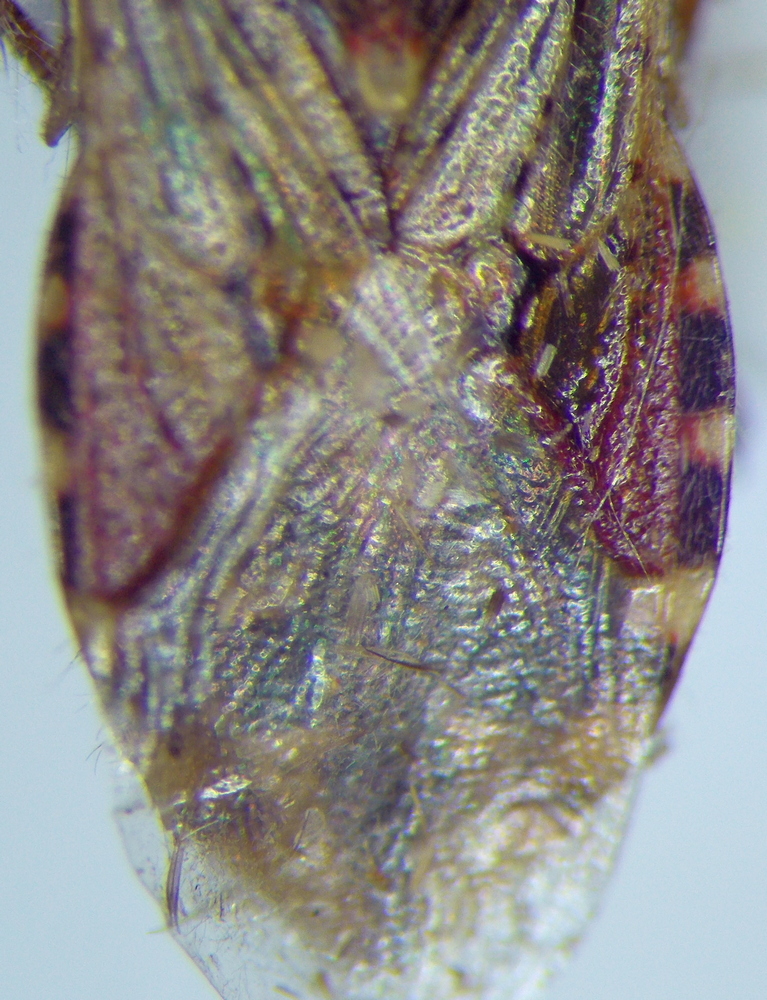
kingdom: Animalia
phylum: Arthropoda
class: Insecta
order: Hemiptera
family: Rhopalidae
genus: Rhopalus
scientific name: Rhopalus subrufus
